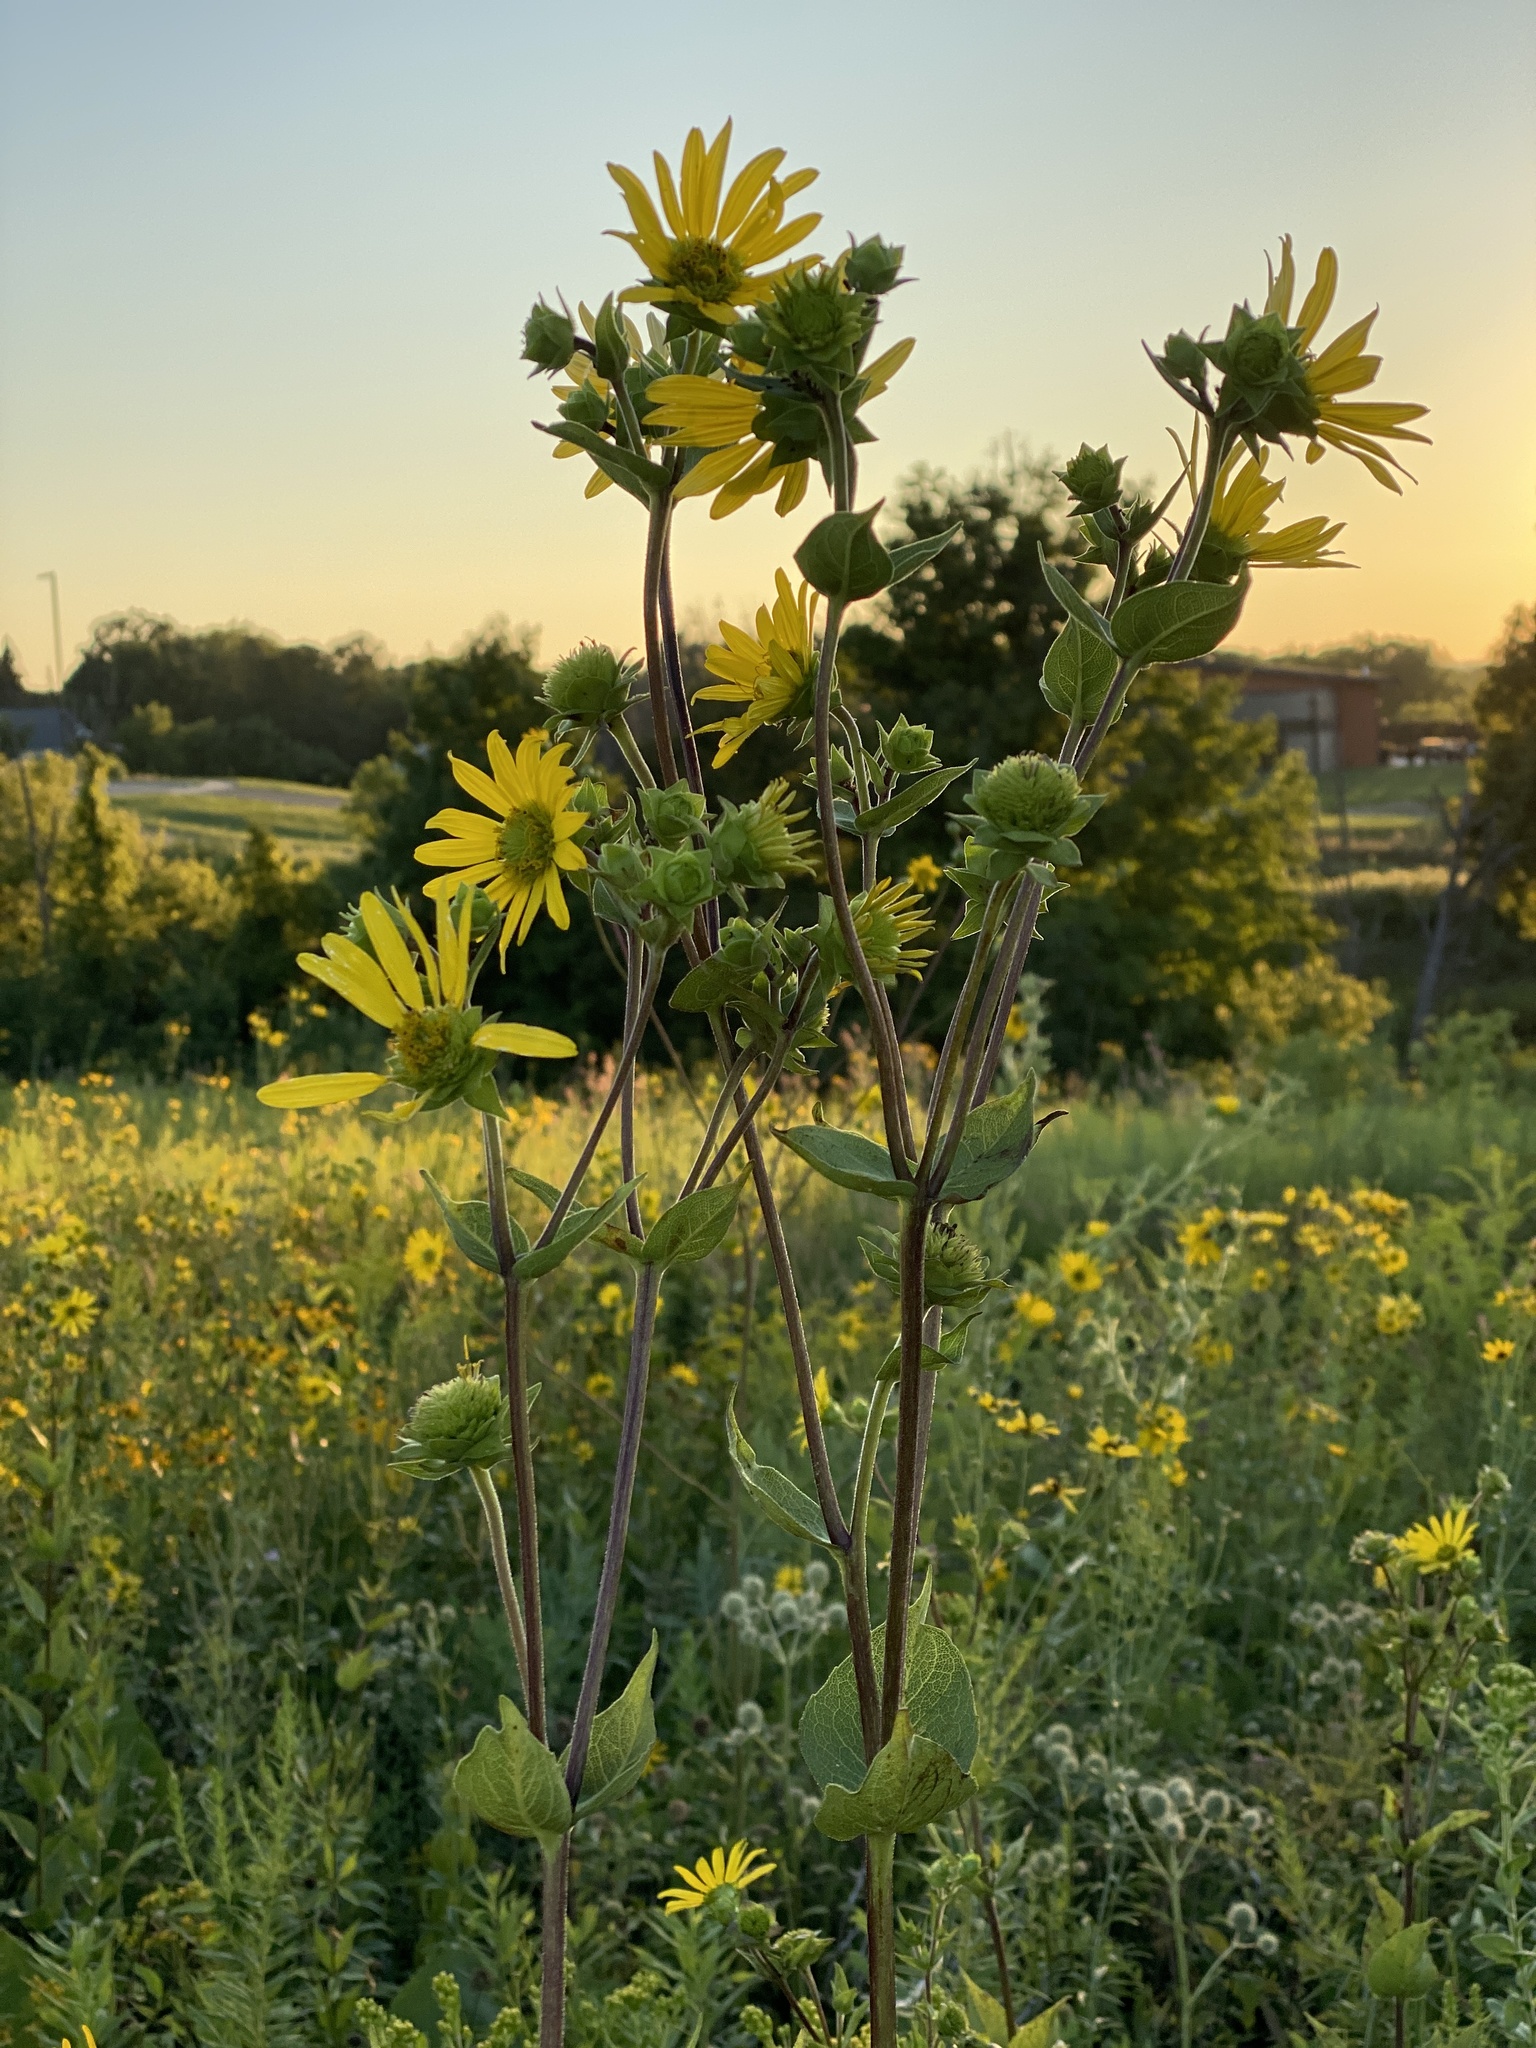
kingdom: Plantae
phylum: Tracheophyta
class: Magnoliopsida
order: Asterales
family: Asteraceae
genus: Silphium
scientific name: Silphium integrifolium
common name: Whole-leaf rosinweed
